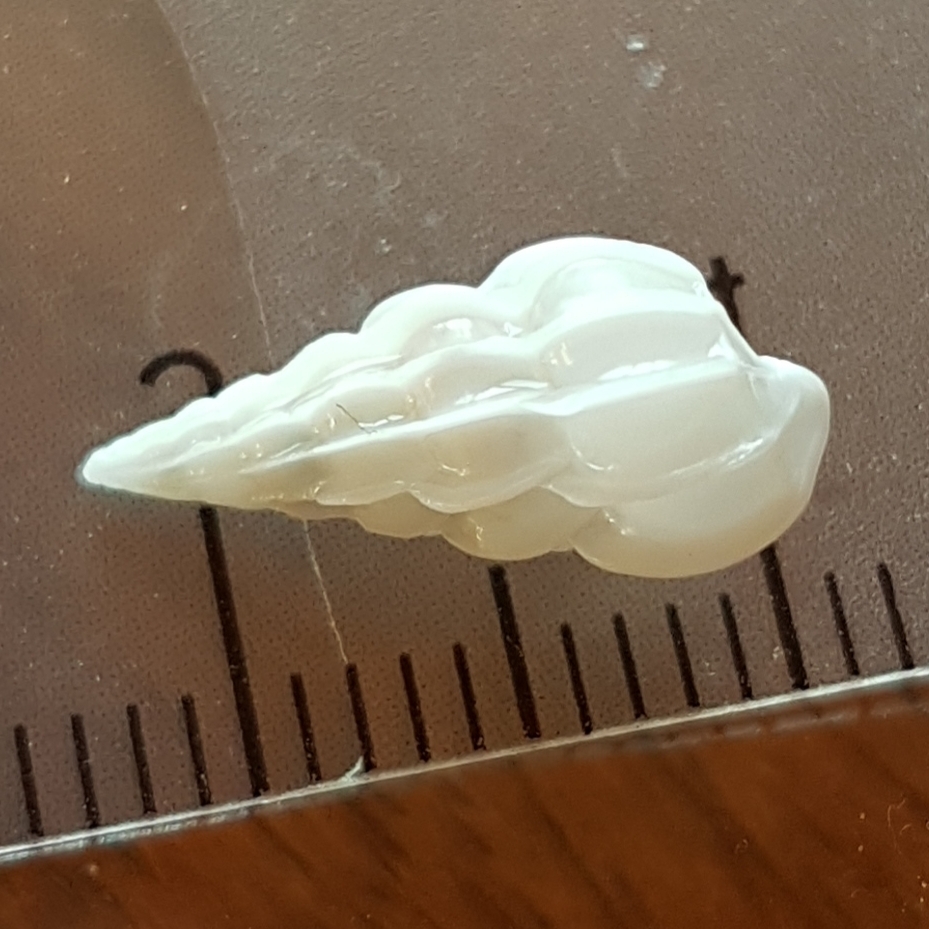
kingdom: Animalia
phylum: Mollusca
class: Gastropoda
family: Epitoniidae
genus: Gyroscala
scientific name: Gyroscala commutata
